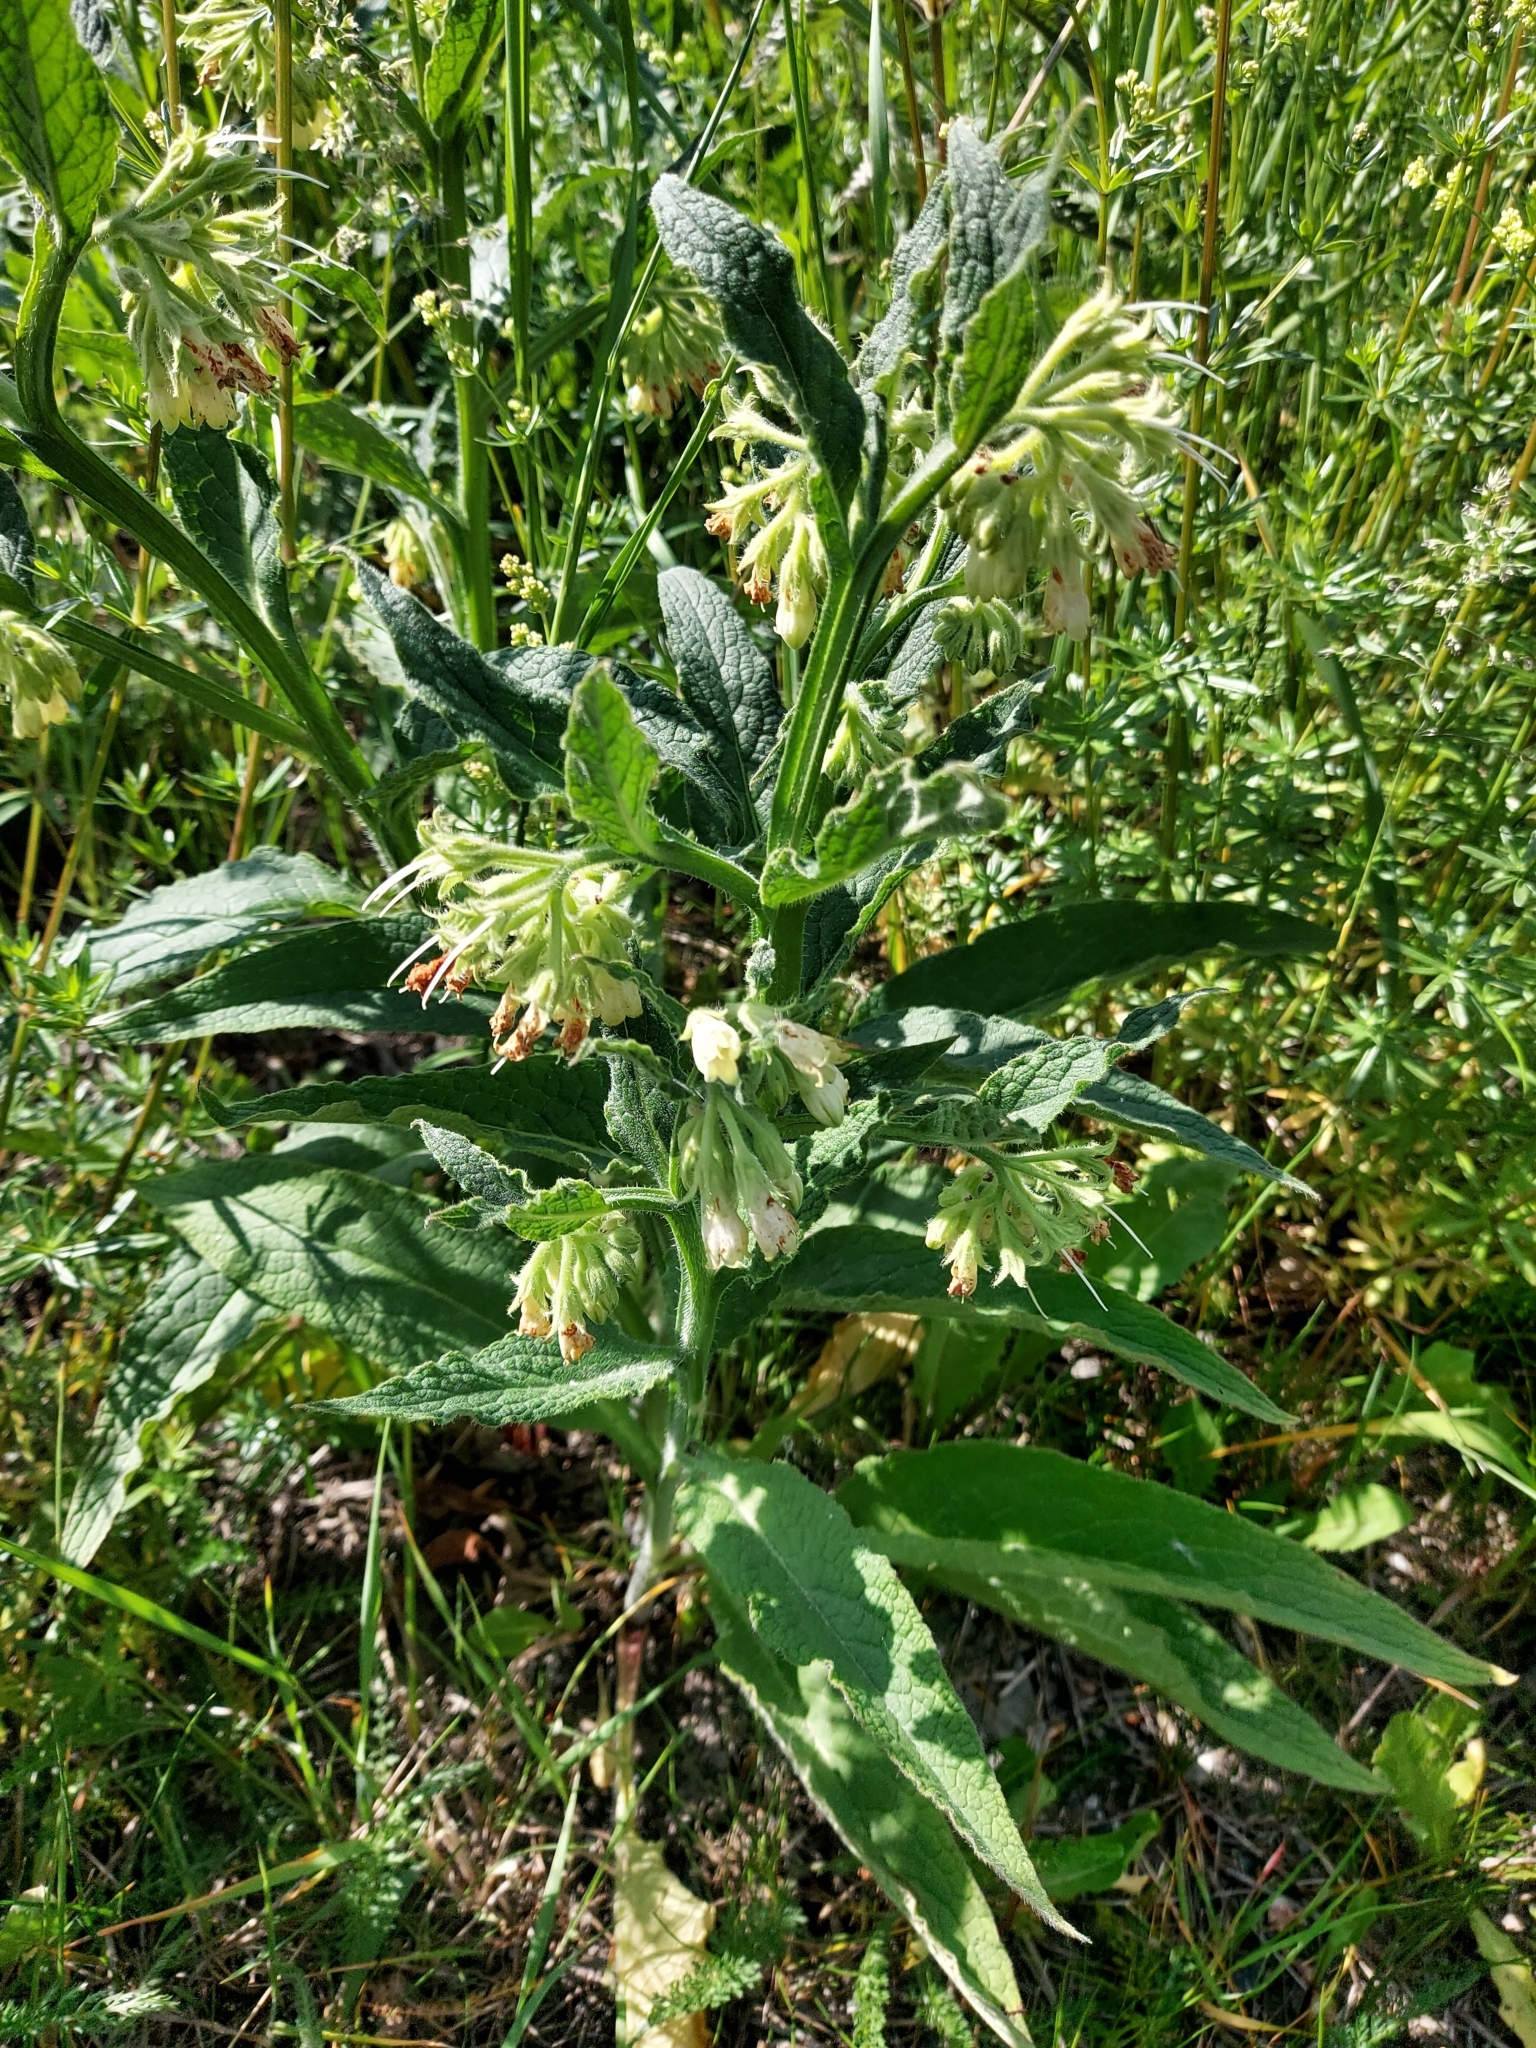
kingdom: Plantae
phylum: Tracheophyta
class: Magnoliopsida
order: Boraginales
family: Boraginaceae
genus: Symphytum
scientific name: Symphytum officinale
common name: Common comfrey
